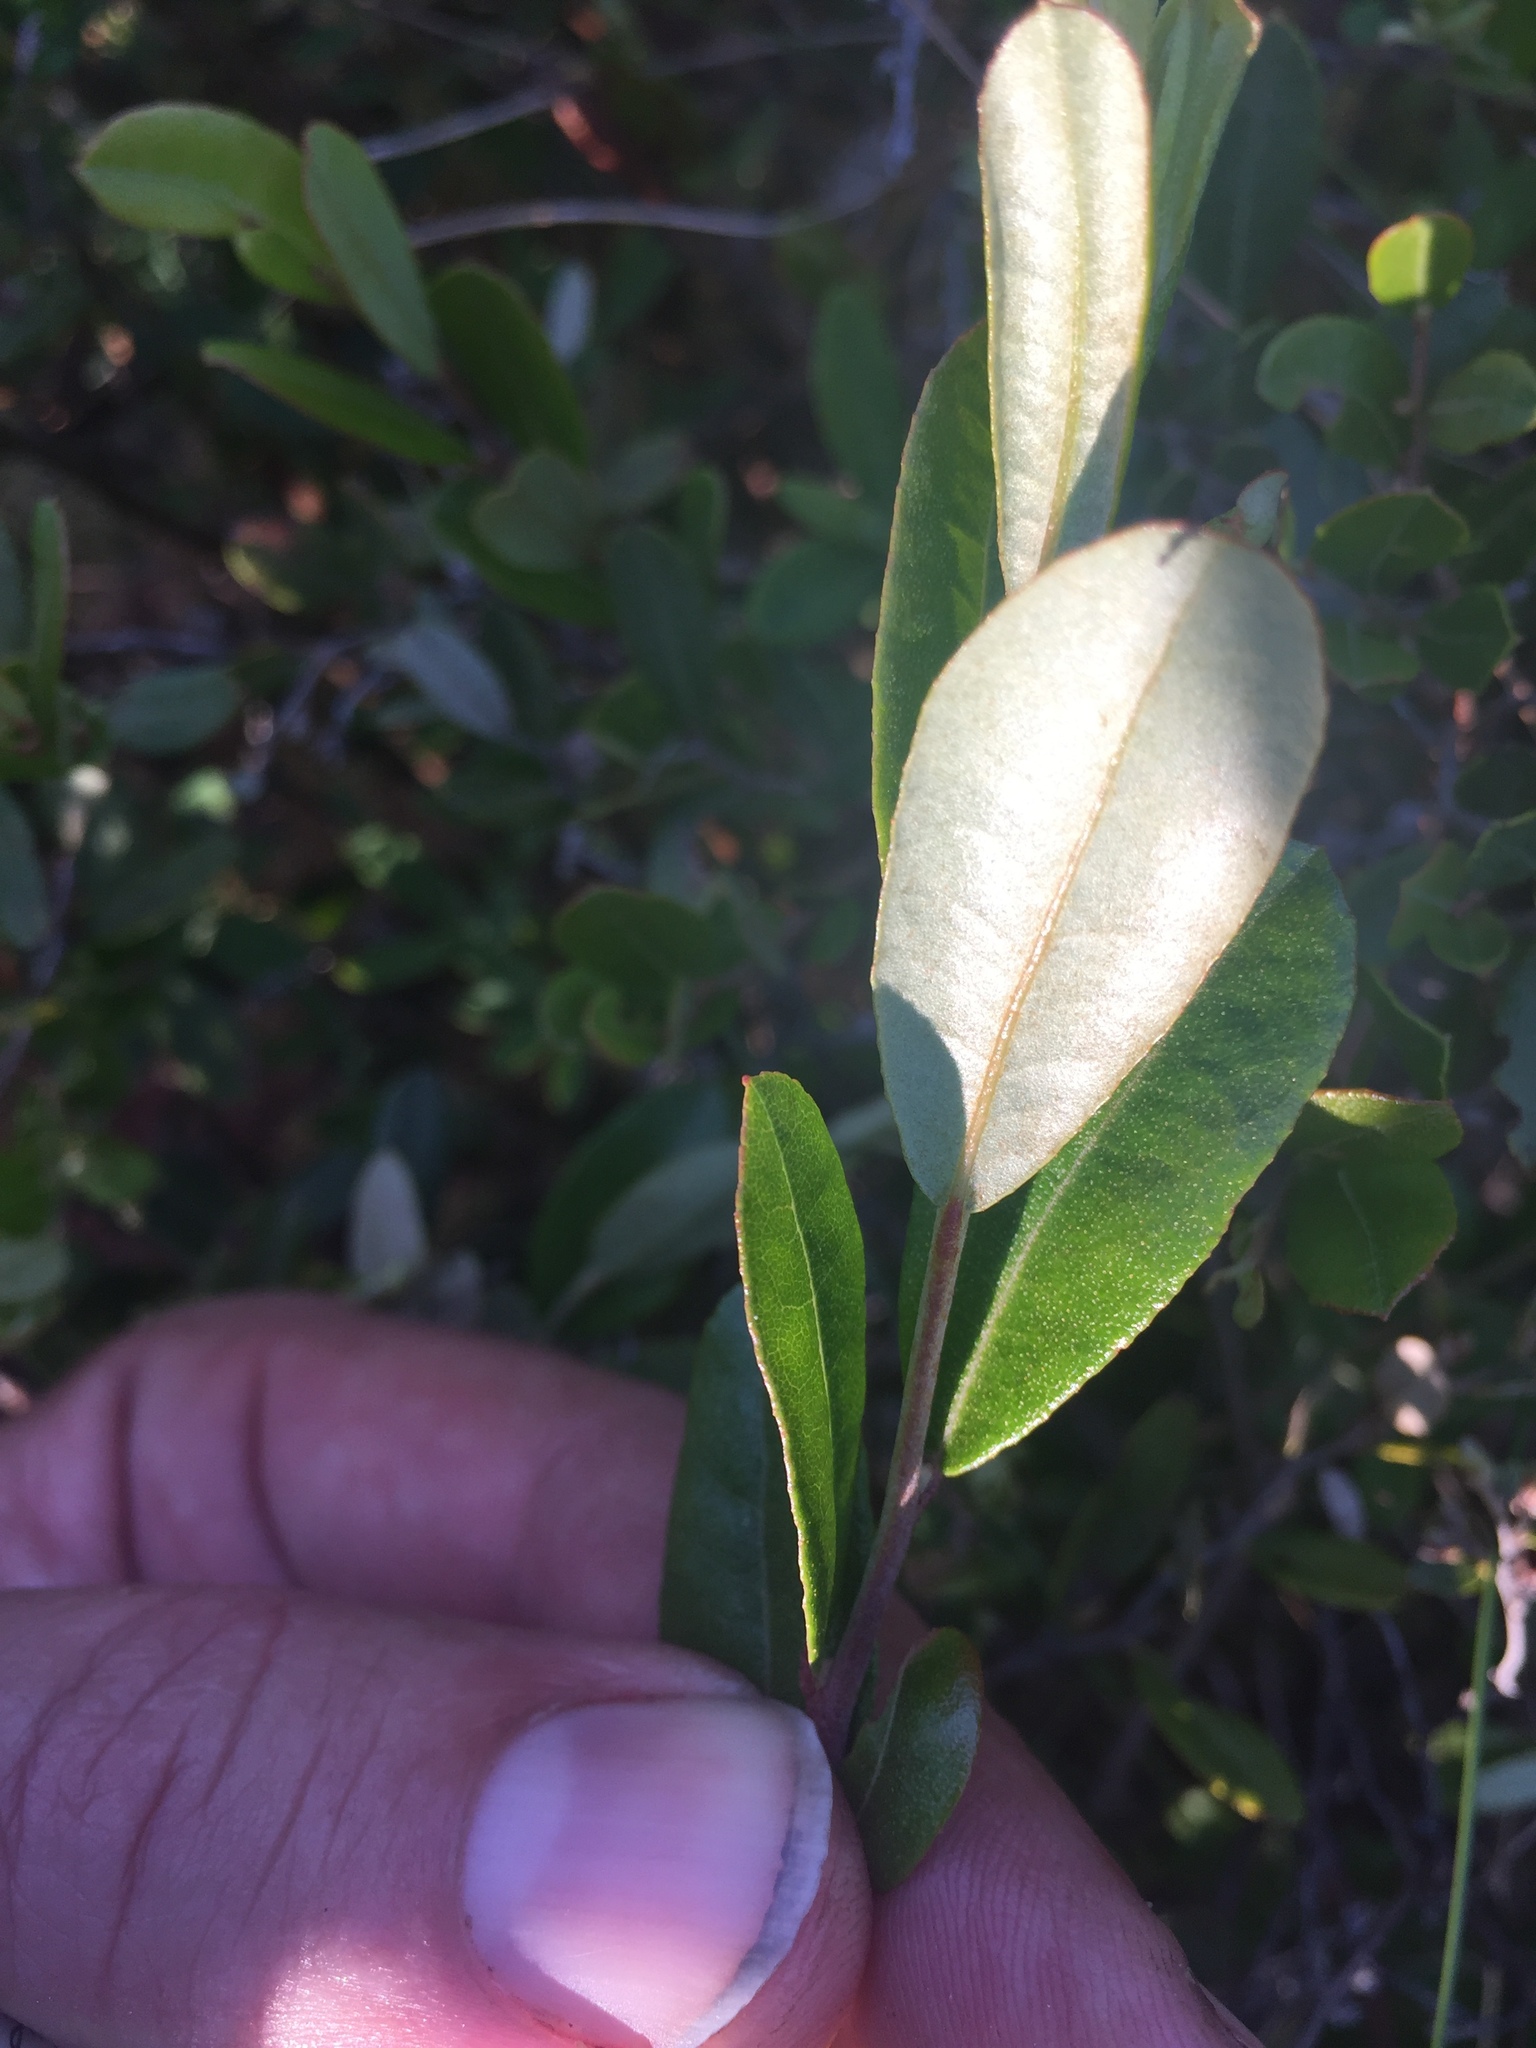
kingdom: Plantae
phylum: Tracheophyta
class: Magnoliopsida
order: Ericales
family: Ericaceae
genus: Chamaedaphne
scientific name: Chamaedaphne calyculata
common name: Leatherleaf
